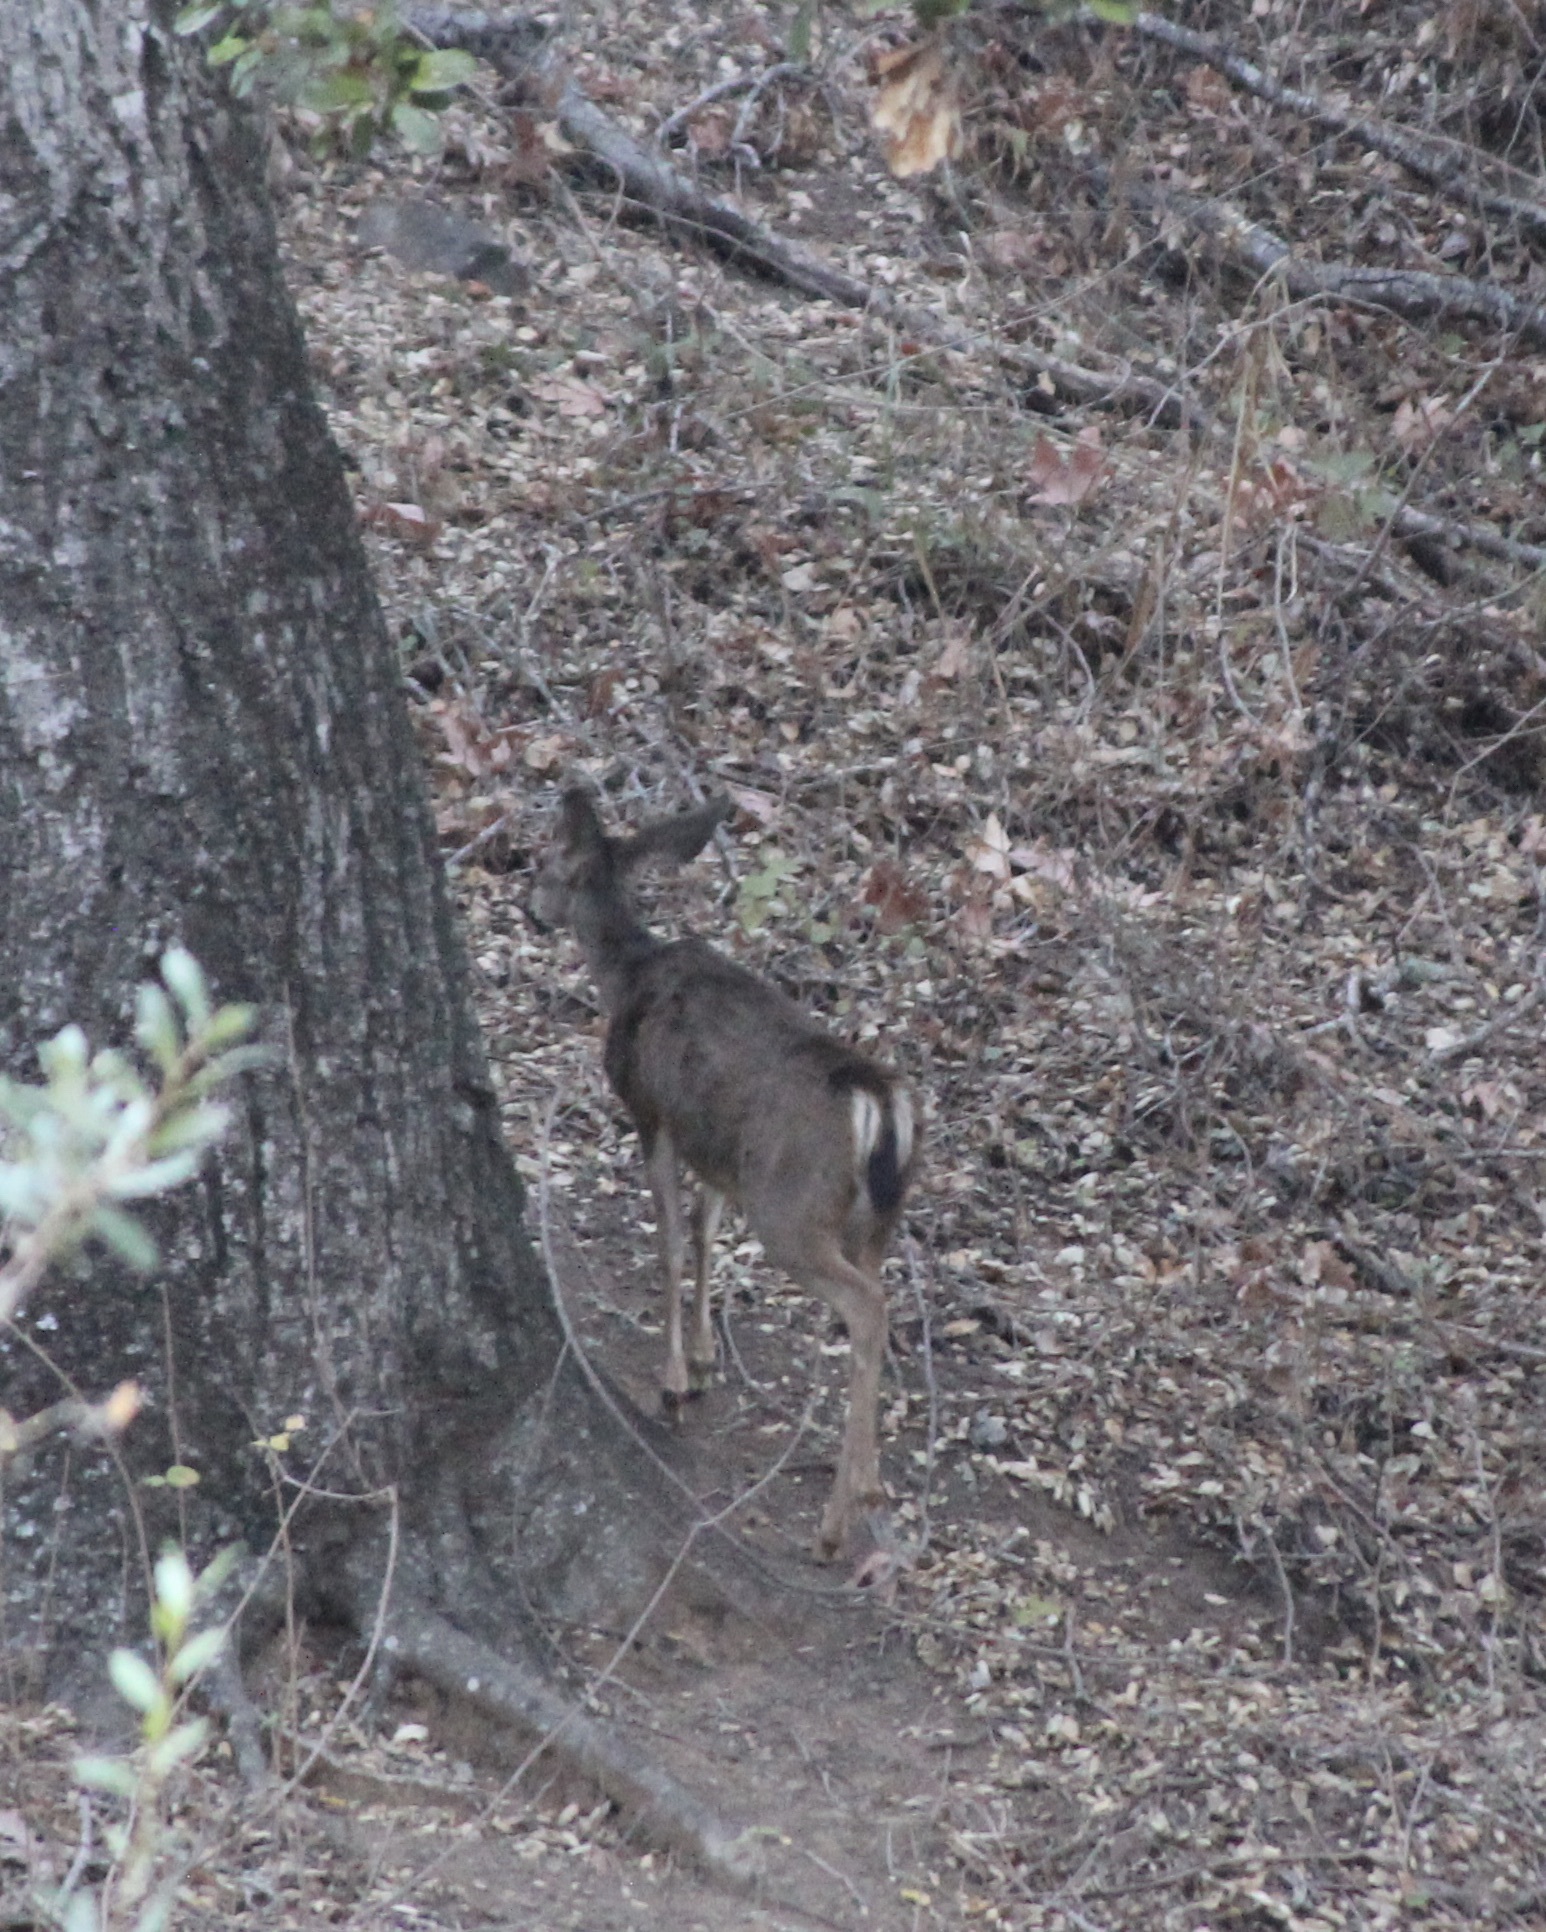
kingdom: Animalia
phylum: Chordata
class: Mammalia
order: Artiodactyla
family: Cervidae
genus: Odocoileus
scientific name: Odocoileus hemionus
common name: Mule deer
